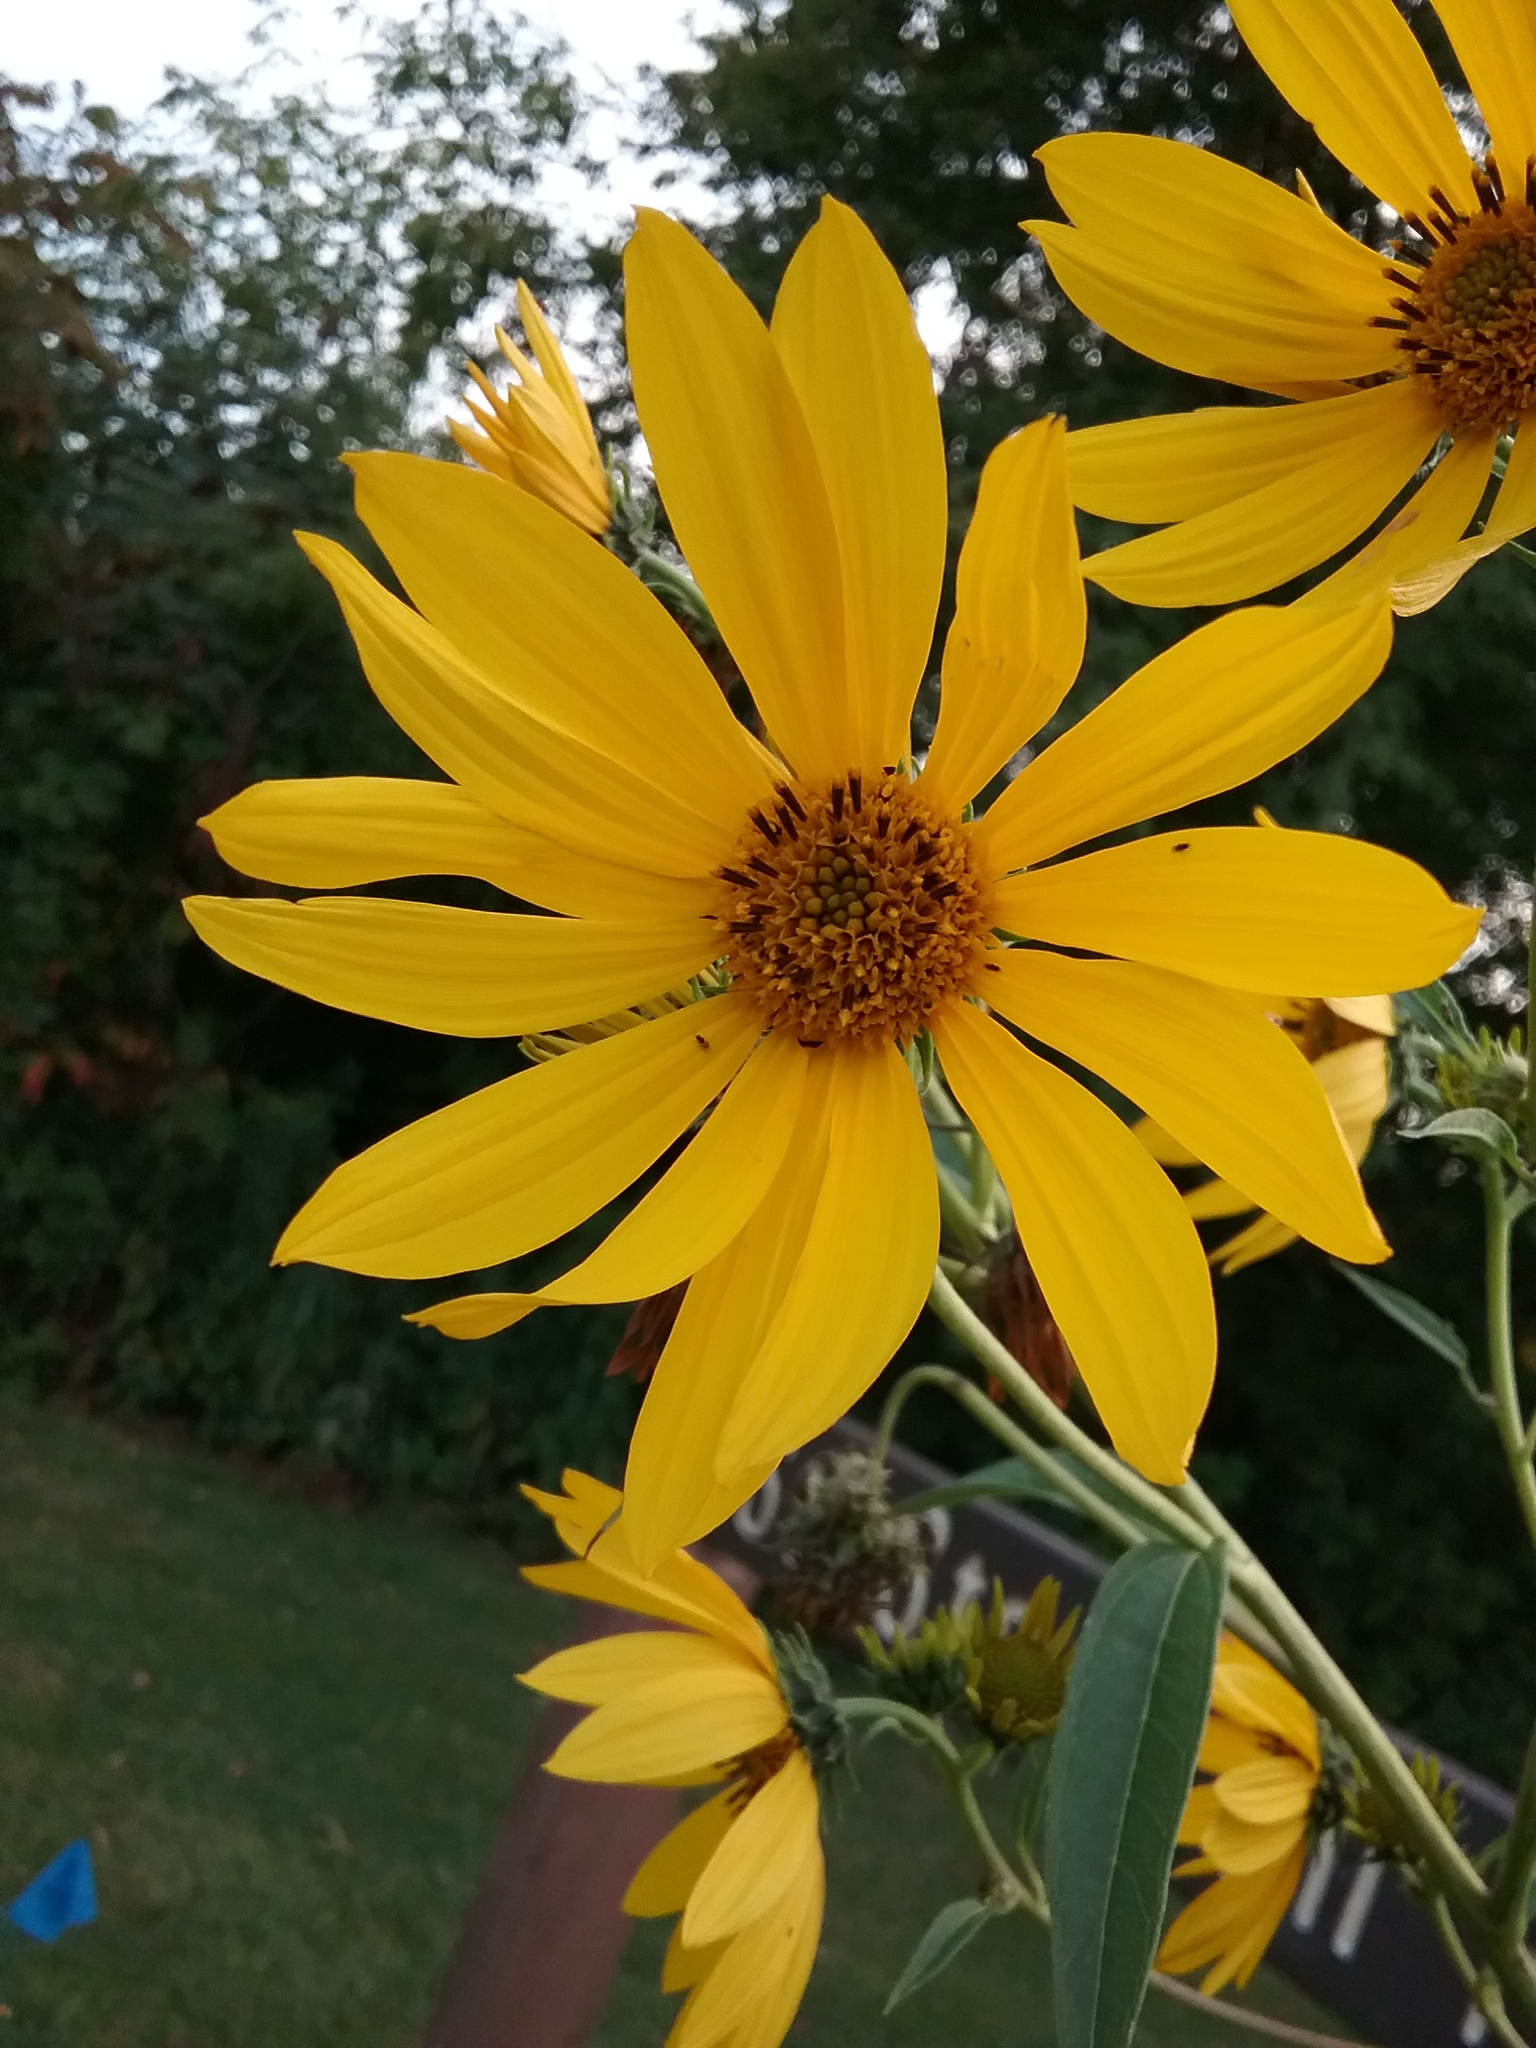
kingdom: Plantae
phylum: Tracheophyta
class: Magnoliopsida
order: Asterales
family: Asteraceae
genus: Helianthus
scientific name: Helianthus grosseserratus
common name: Sawtooth sunflower
